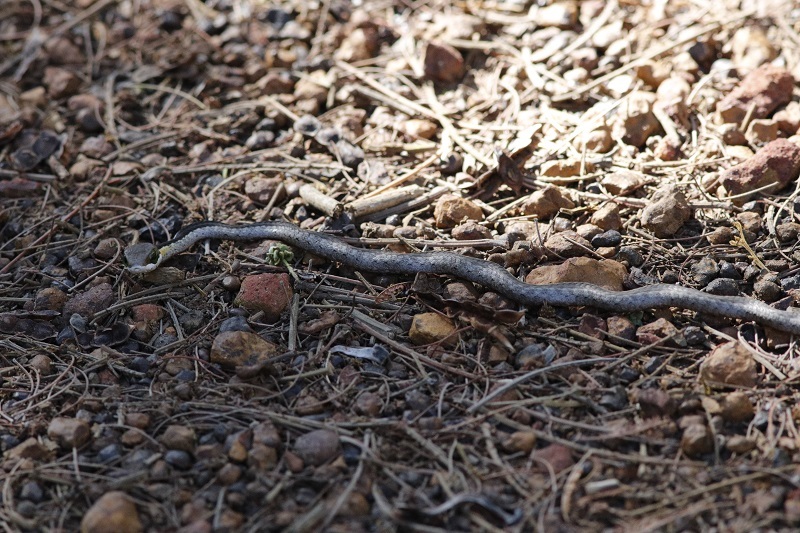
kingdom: Animalia
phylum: Chordata
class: Squamata
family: Colubridae
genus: Dispholidus
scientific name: Dispholidus typus
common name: Boomslang
